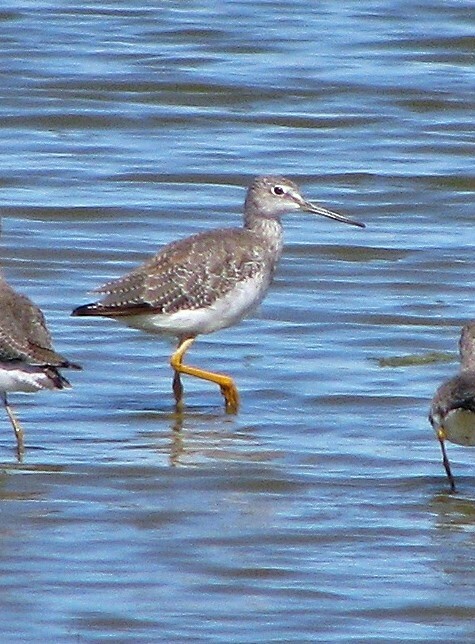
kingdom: Animalia
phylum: Chordata
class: Aves
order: Charadriiformes
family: Scolopacidae
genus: Tringa
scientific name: Tringa melanoleuca
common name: Greater yellowlegs
